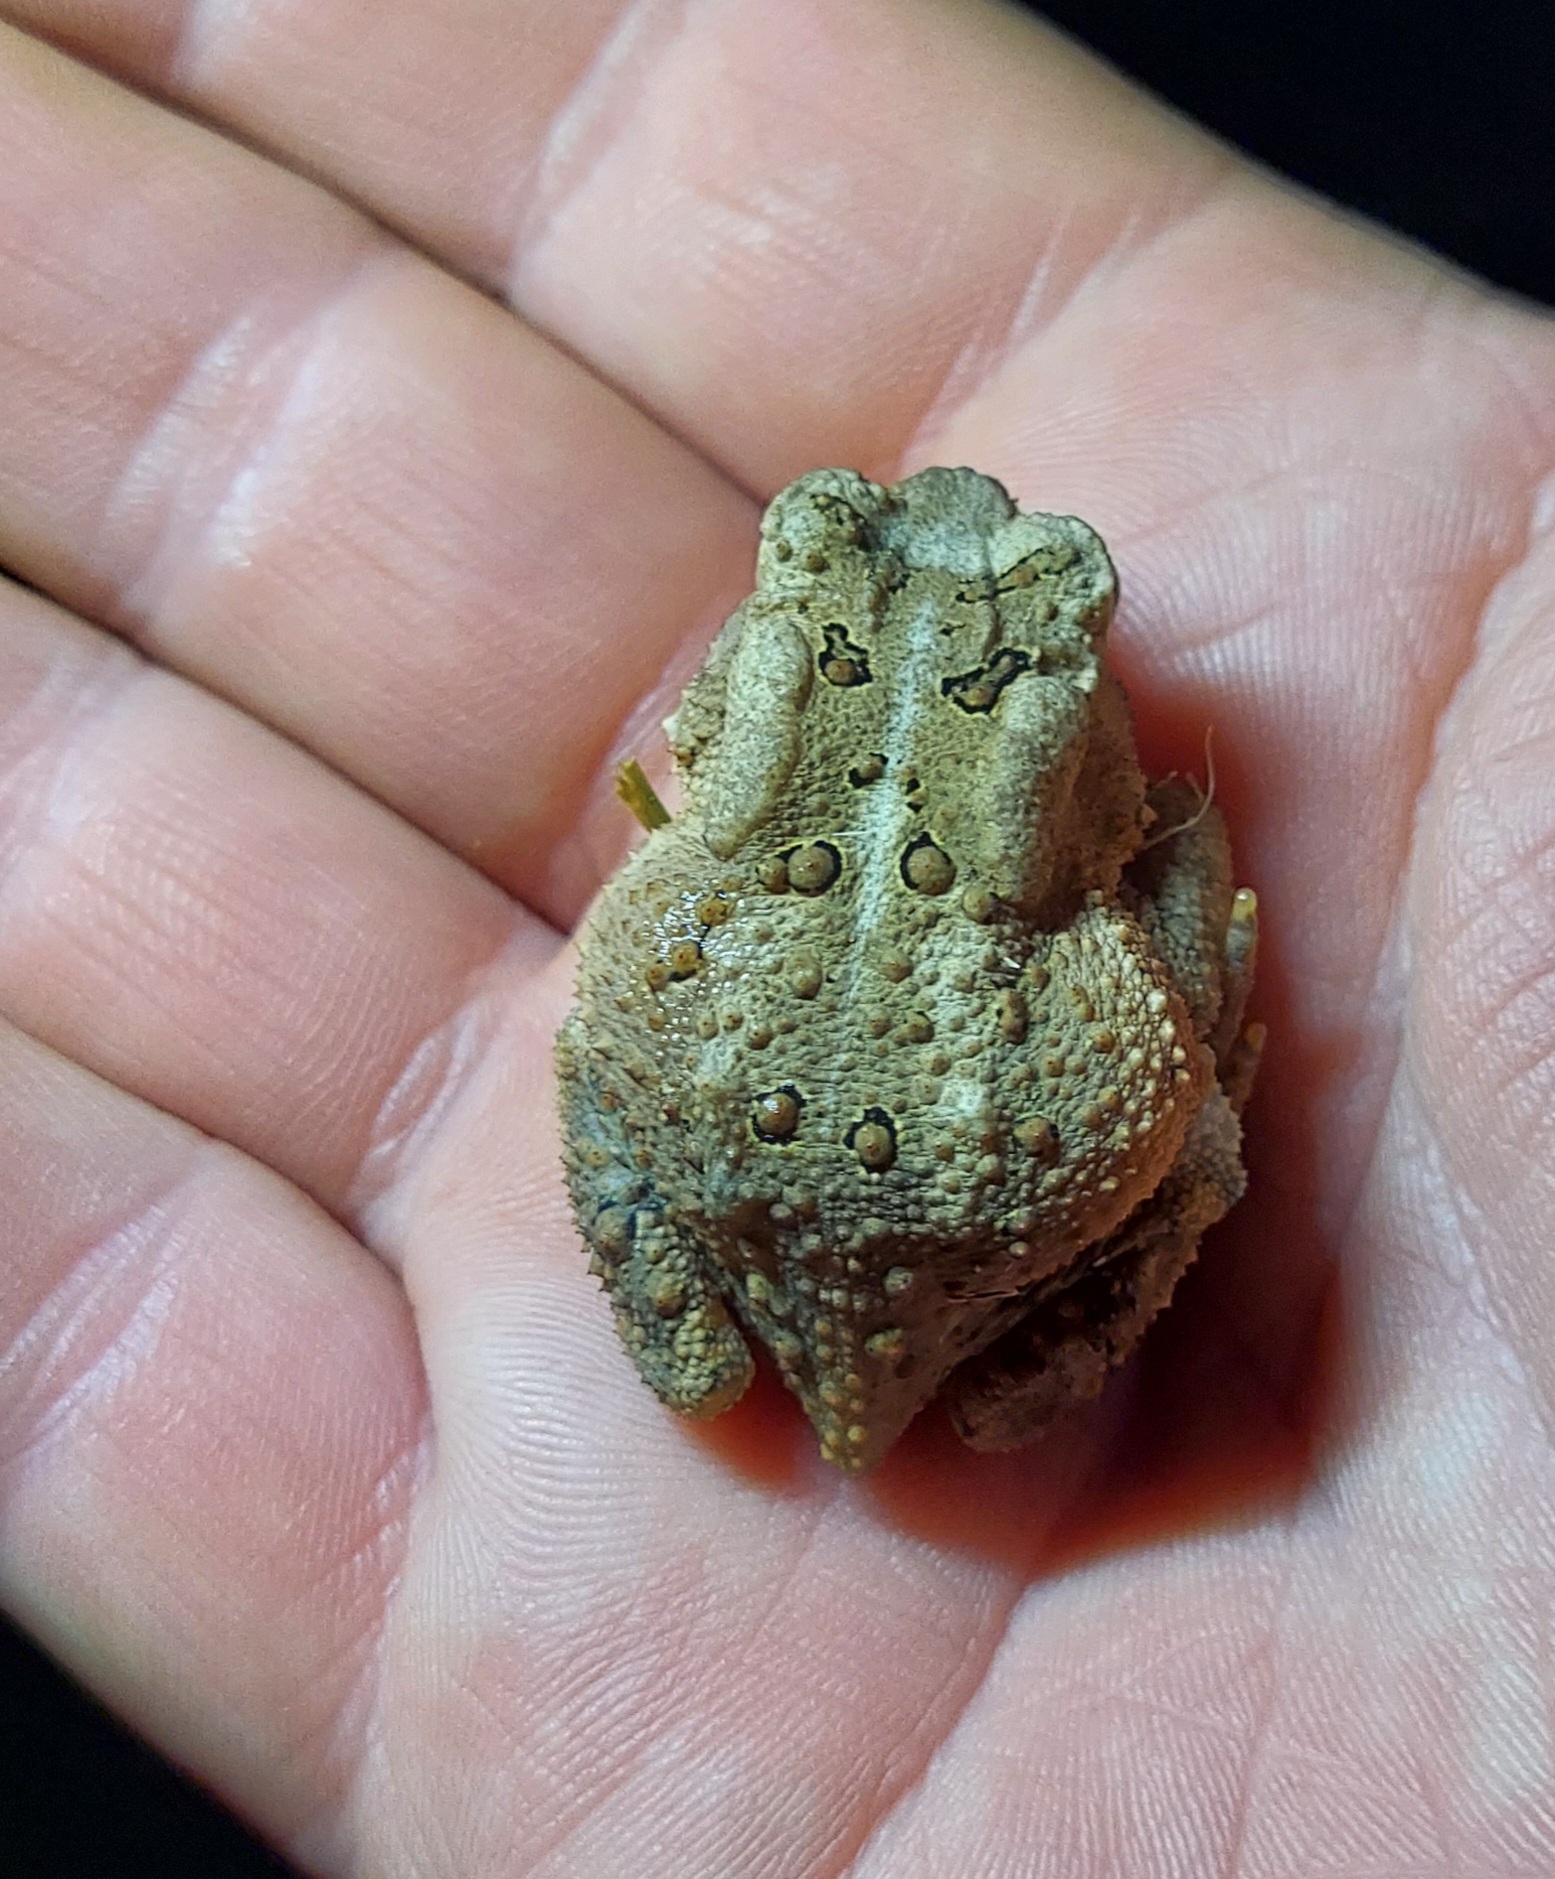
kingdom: Animalia
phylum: Chordata
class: Amphibia
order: Anura
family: Bufonidae
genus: Anaxyrus
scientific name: Anaxyrus americanus
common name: American toad
